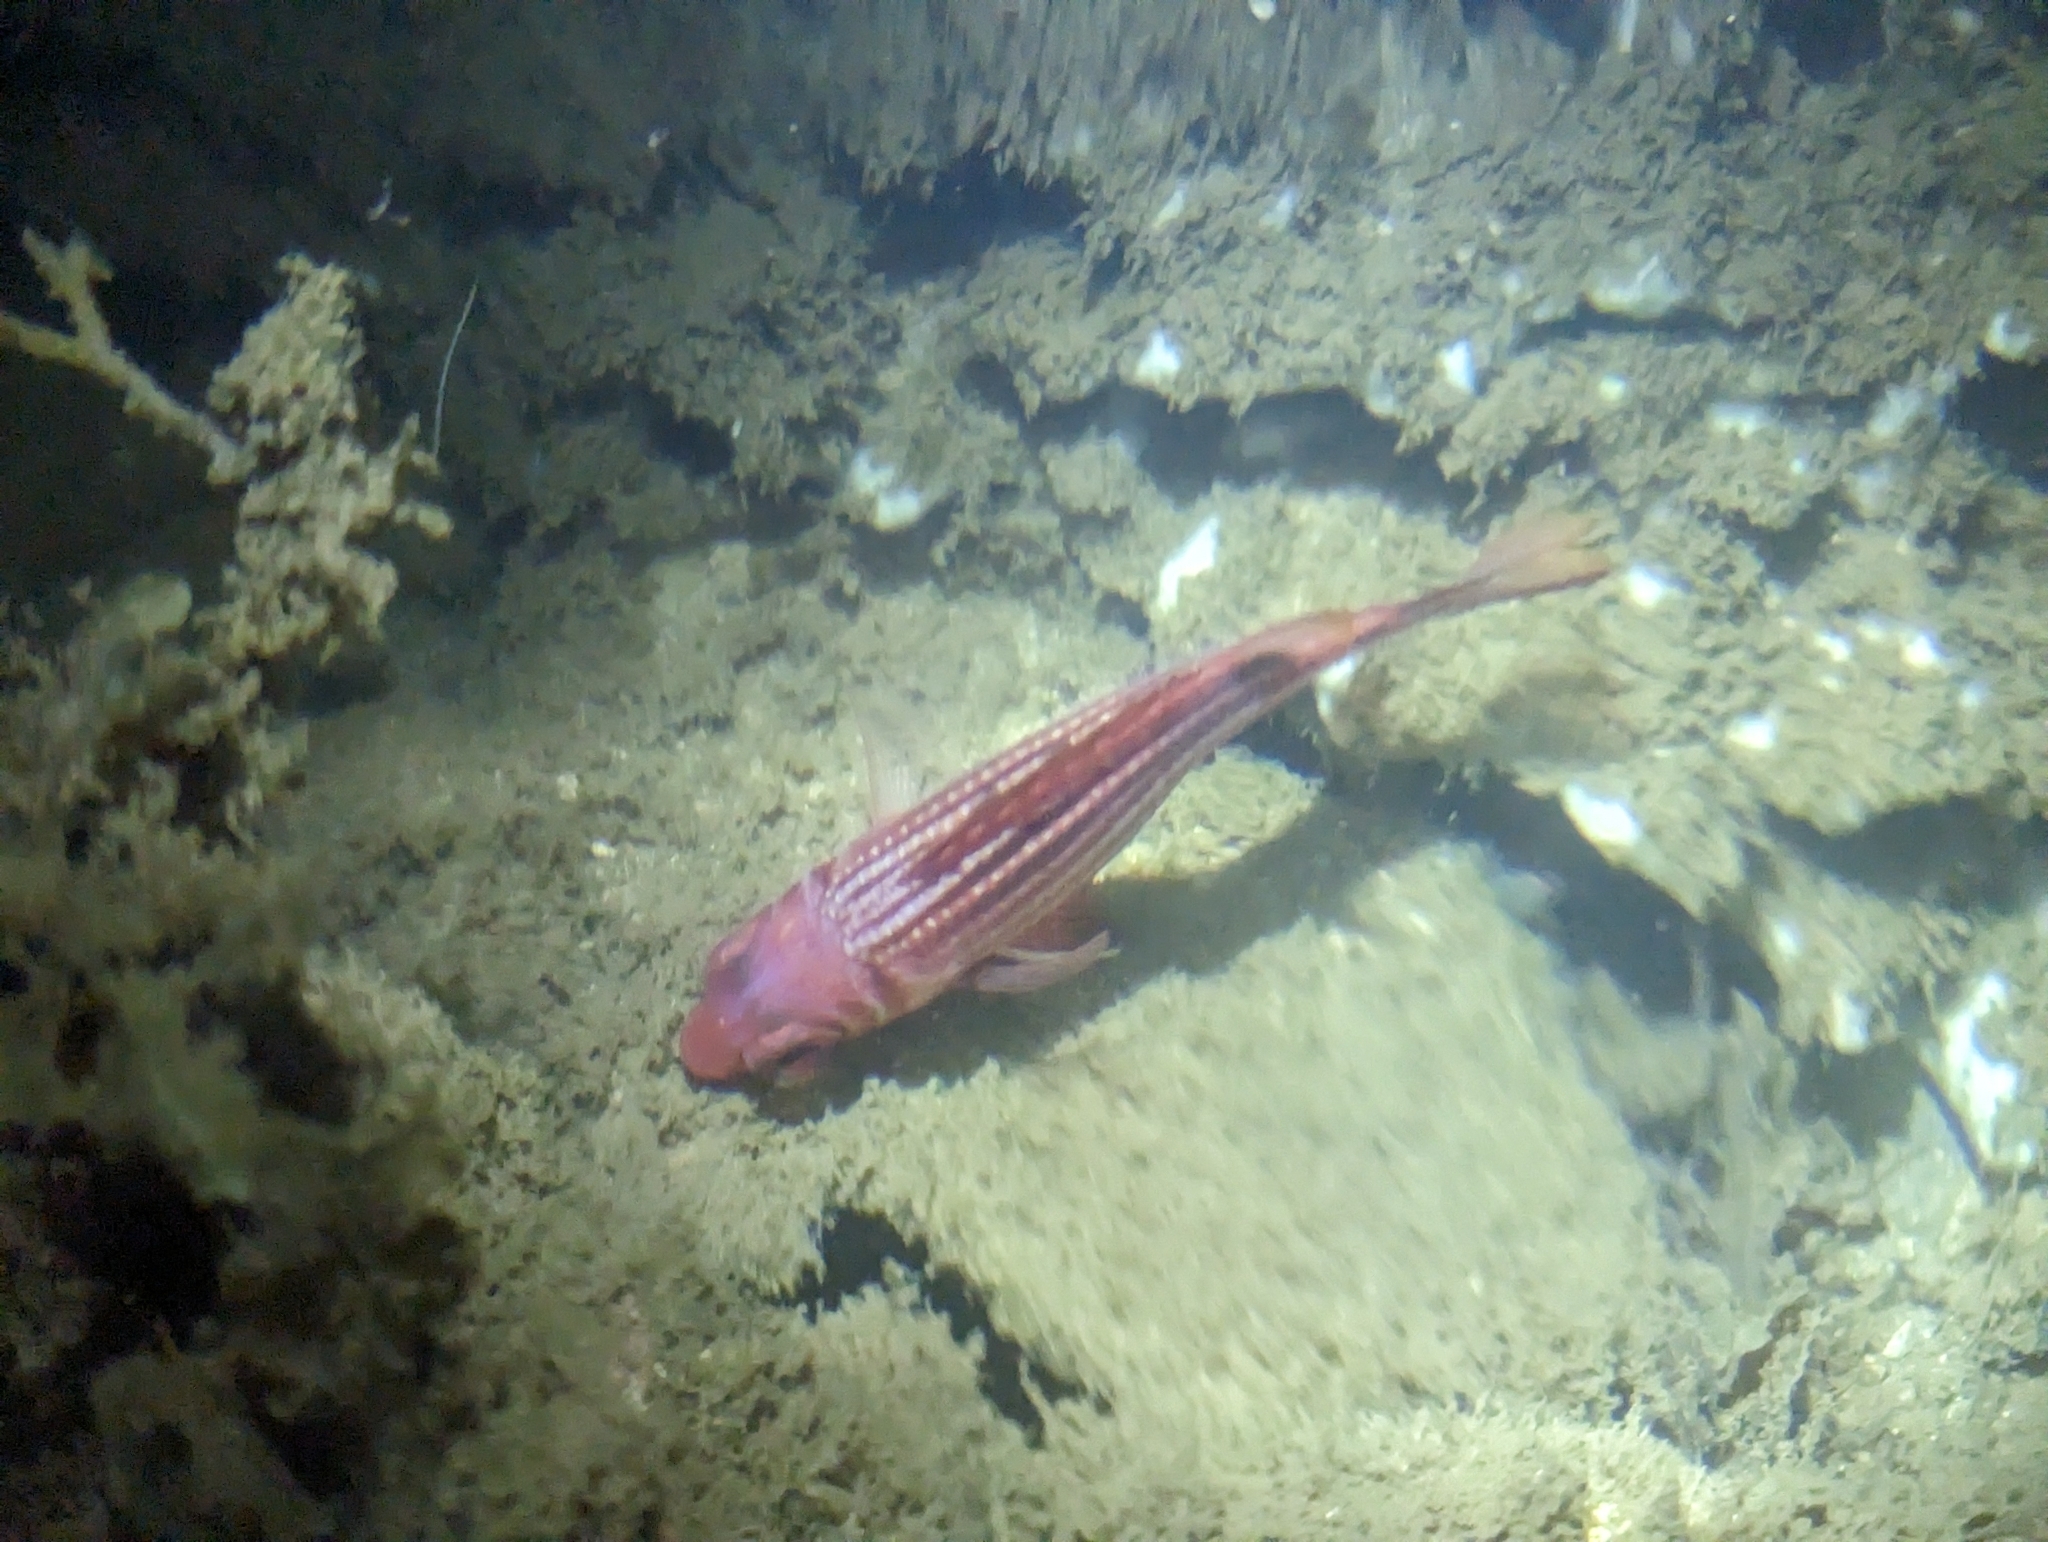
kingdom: Animalia
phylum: Chordata
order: Beryciformes
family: Holocentridae
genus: Sargocentron
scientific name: Sargocentron rubrum
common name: Redcoat
